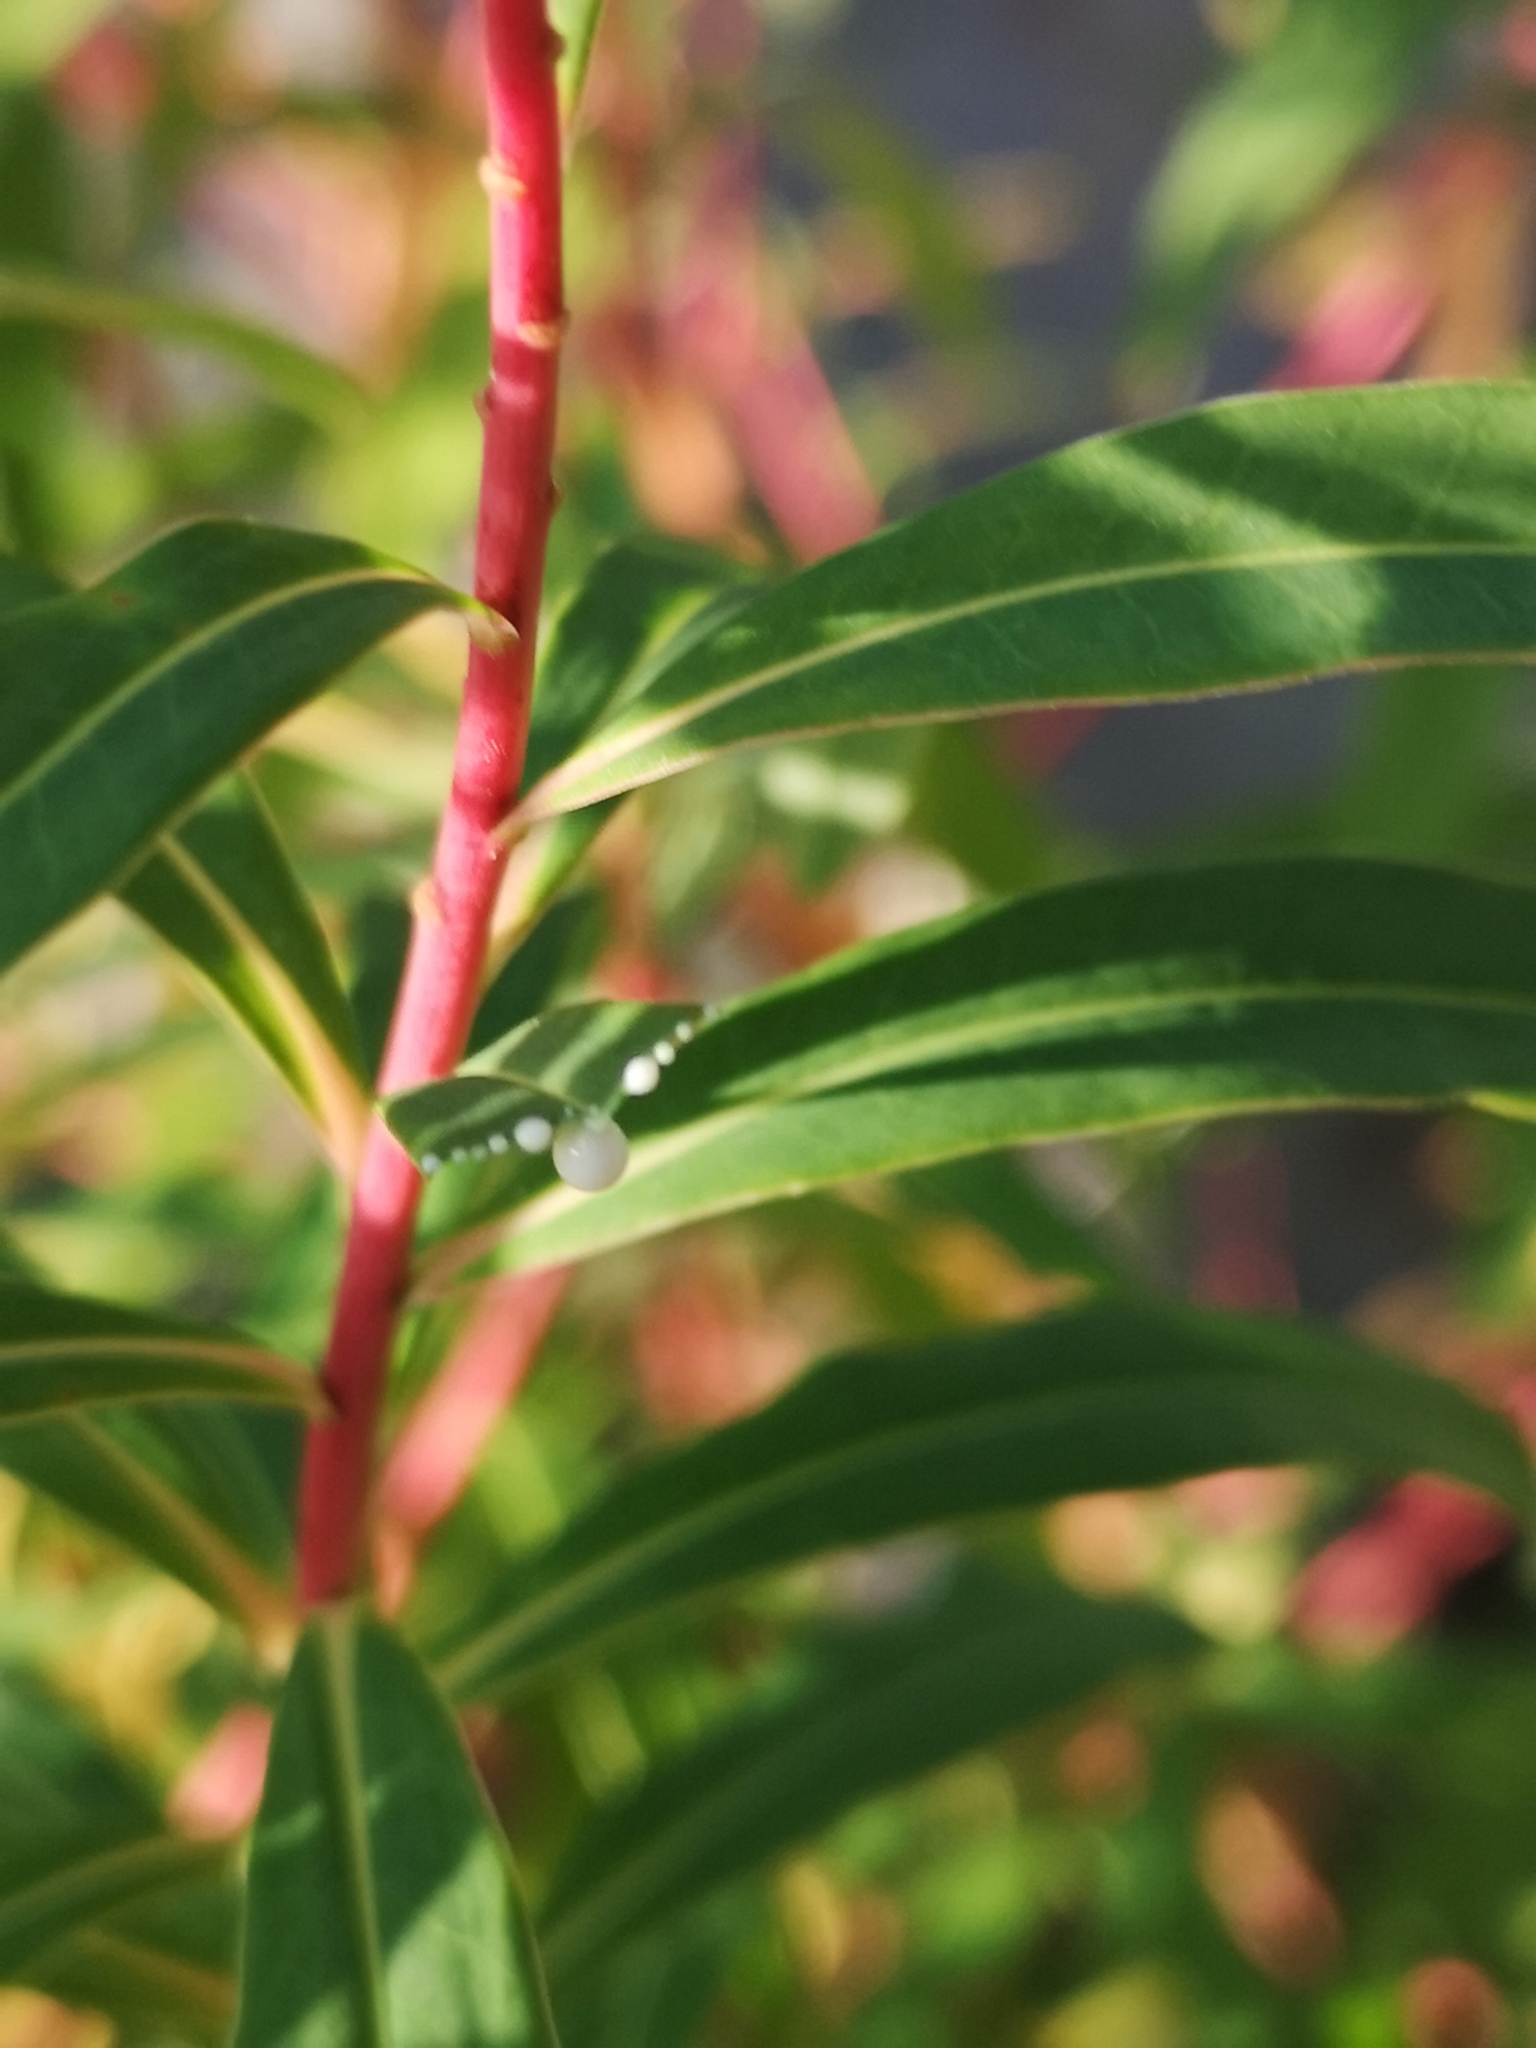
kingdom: Plantae
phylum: Tracheophyta
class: Magnoliopsida
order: Malpighiales
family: Euphorbiaceae
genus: Euphorbia
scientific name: Euphorbia palustris
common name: Marsh spurge
